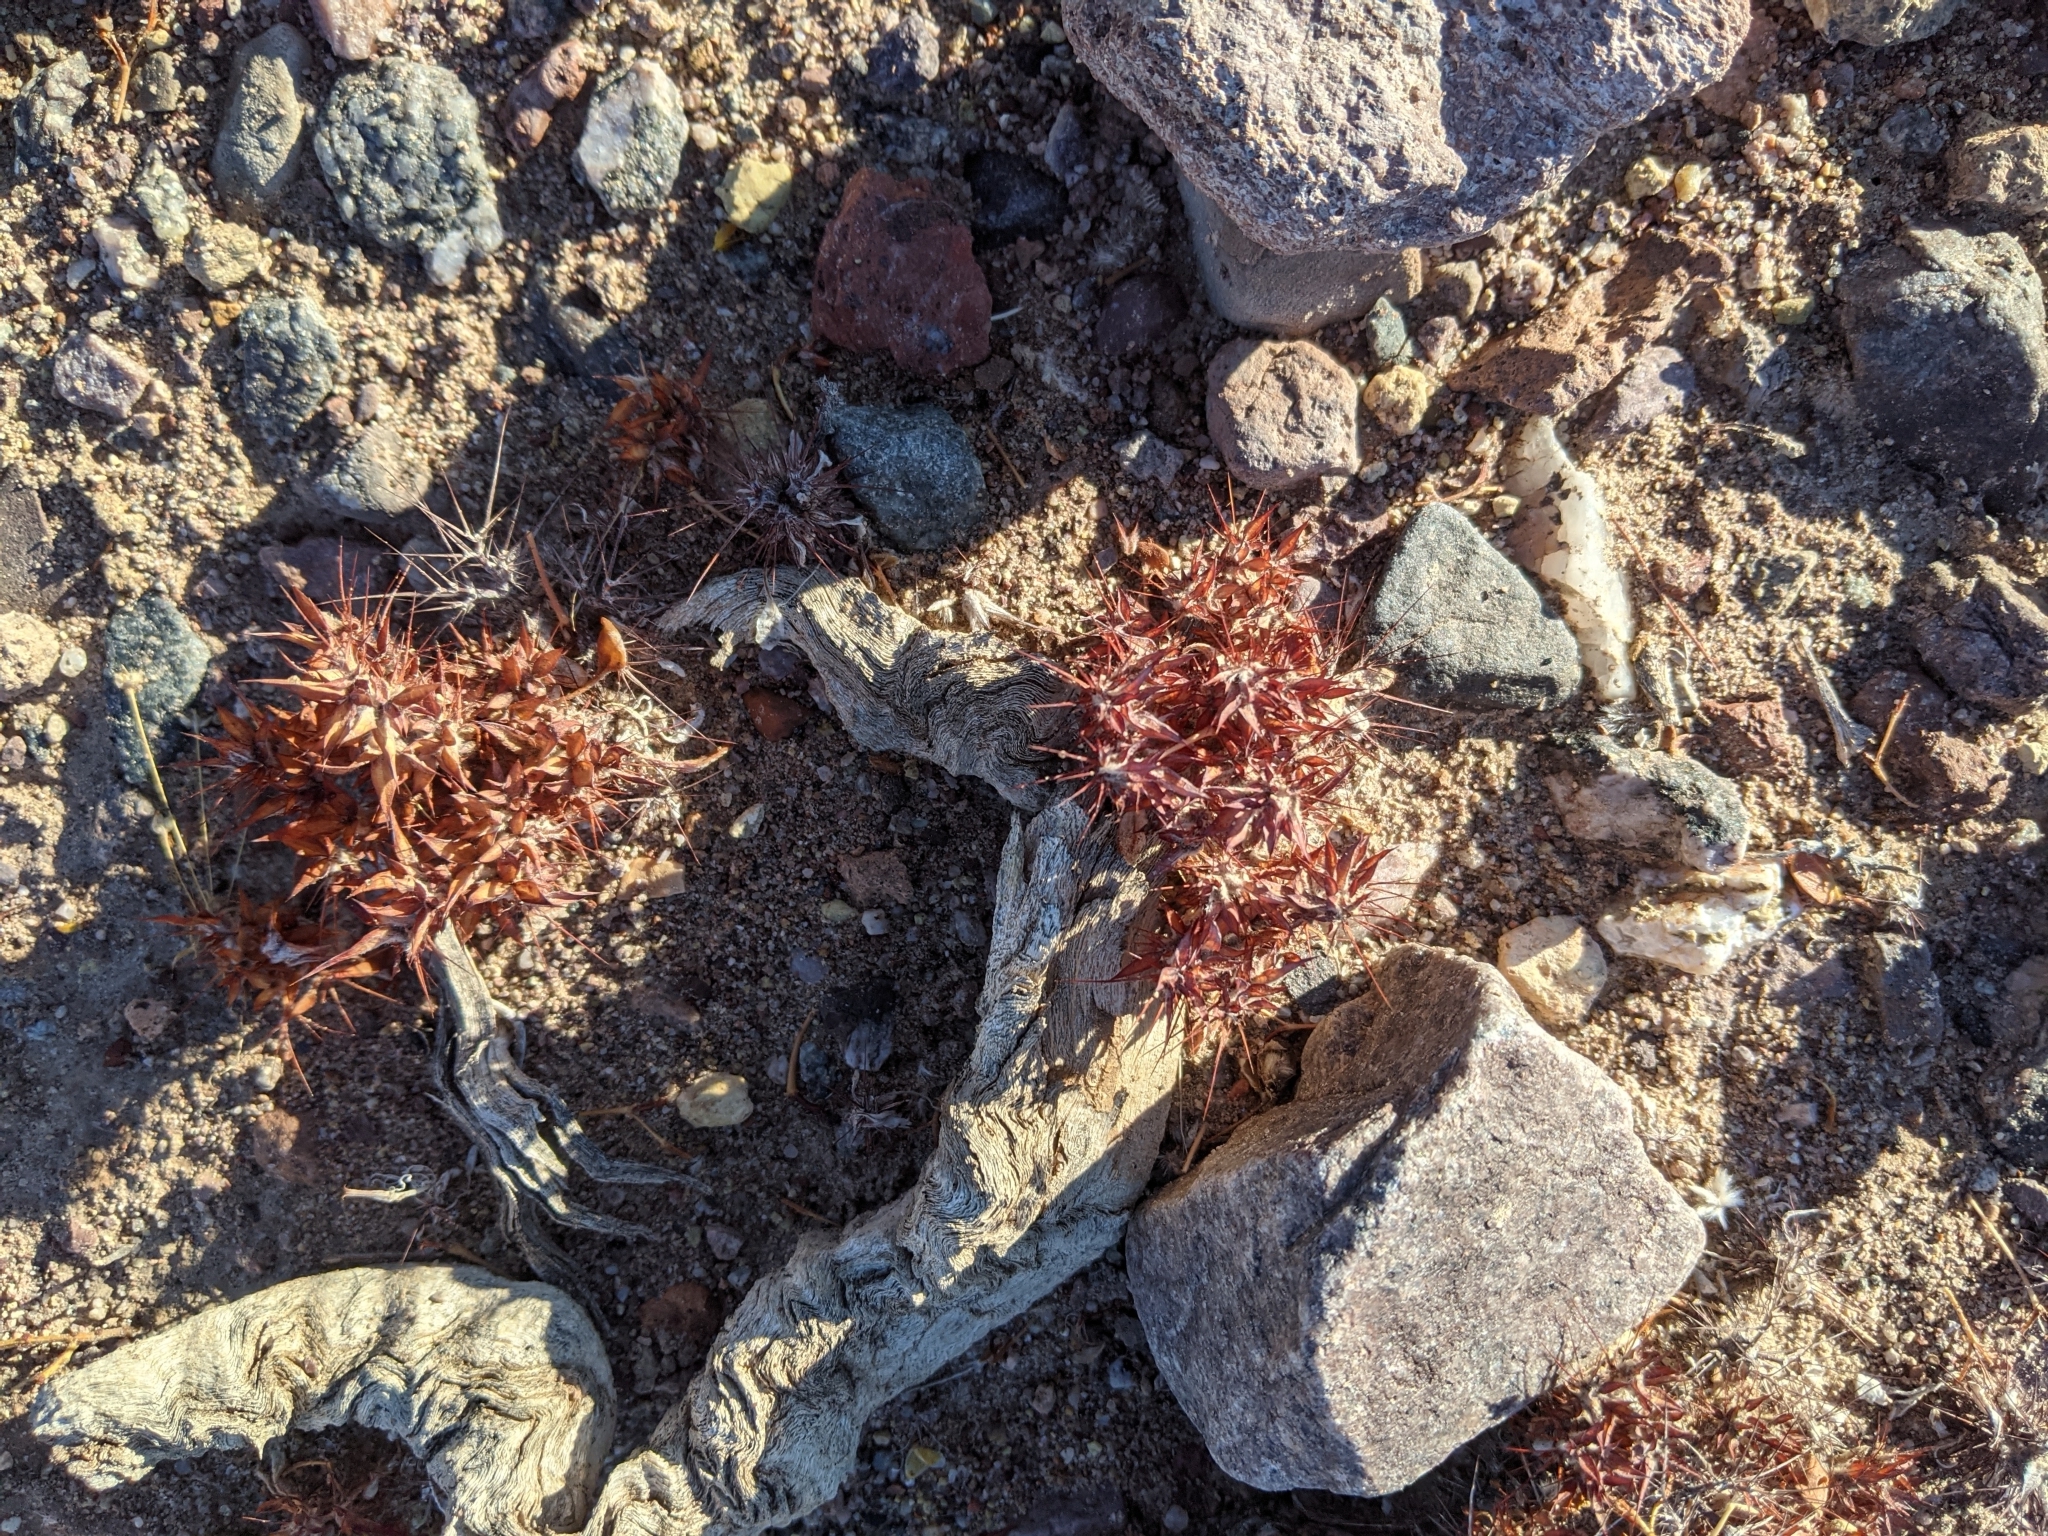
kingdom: Plantae
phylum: Tracheophyta
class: Magnoliopsida
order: Caryophyllales
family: Polygonaceae
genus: Chorizanthe
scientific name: Chorizanthe rigida
